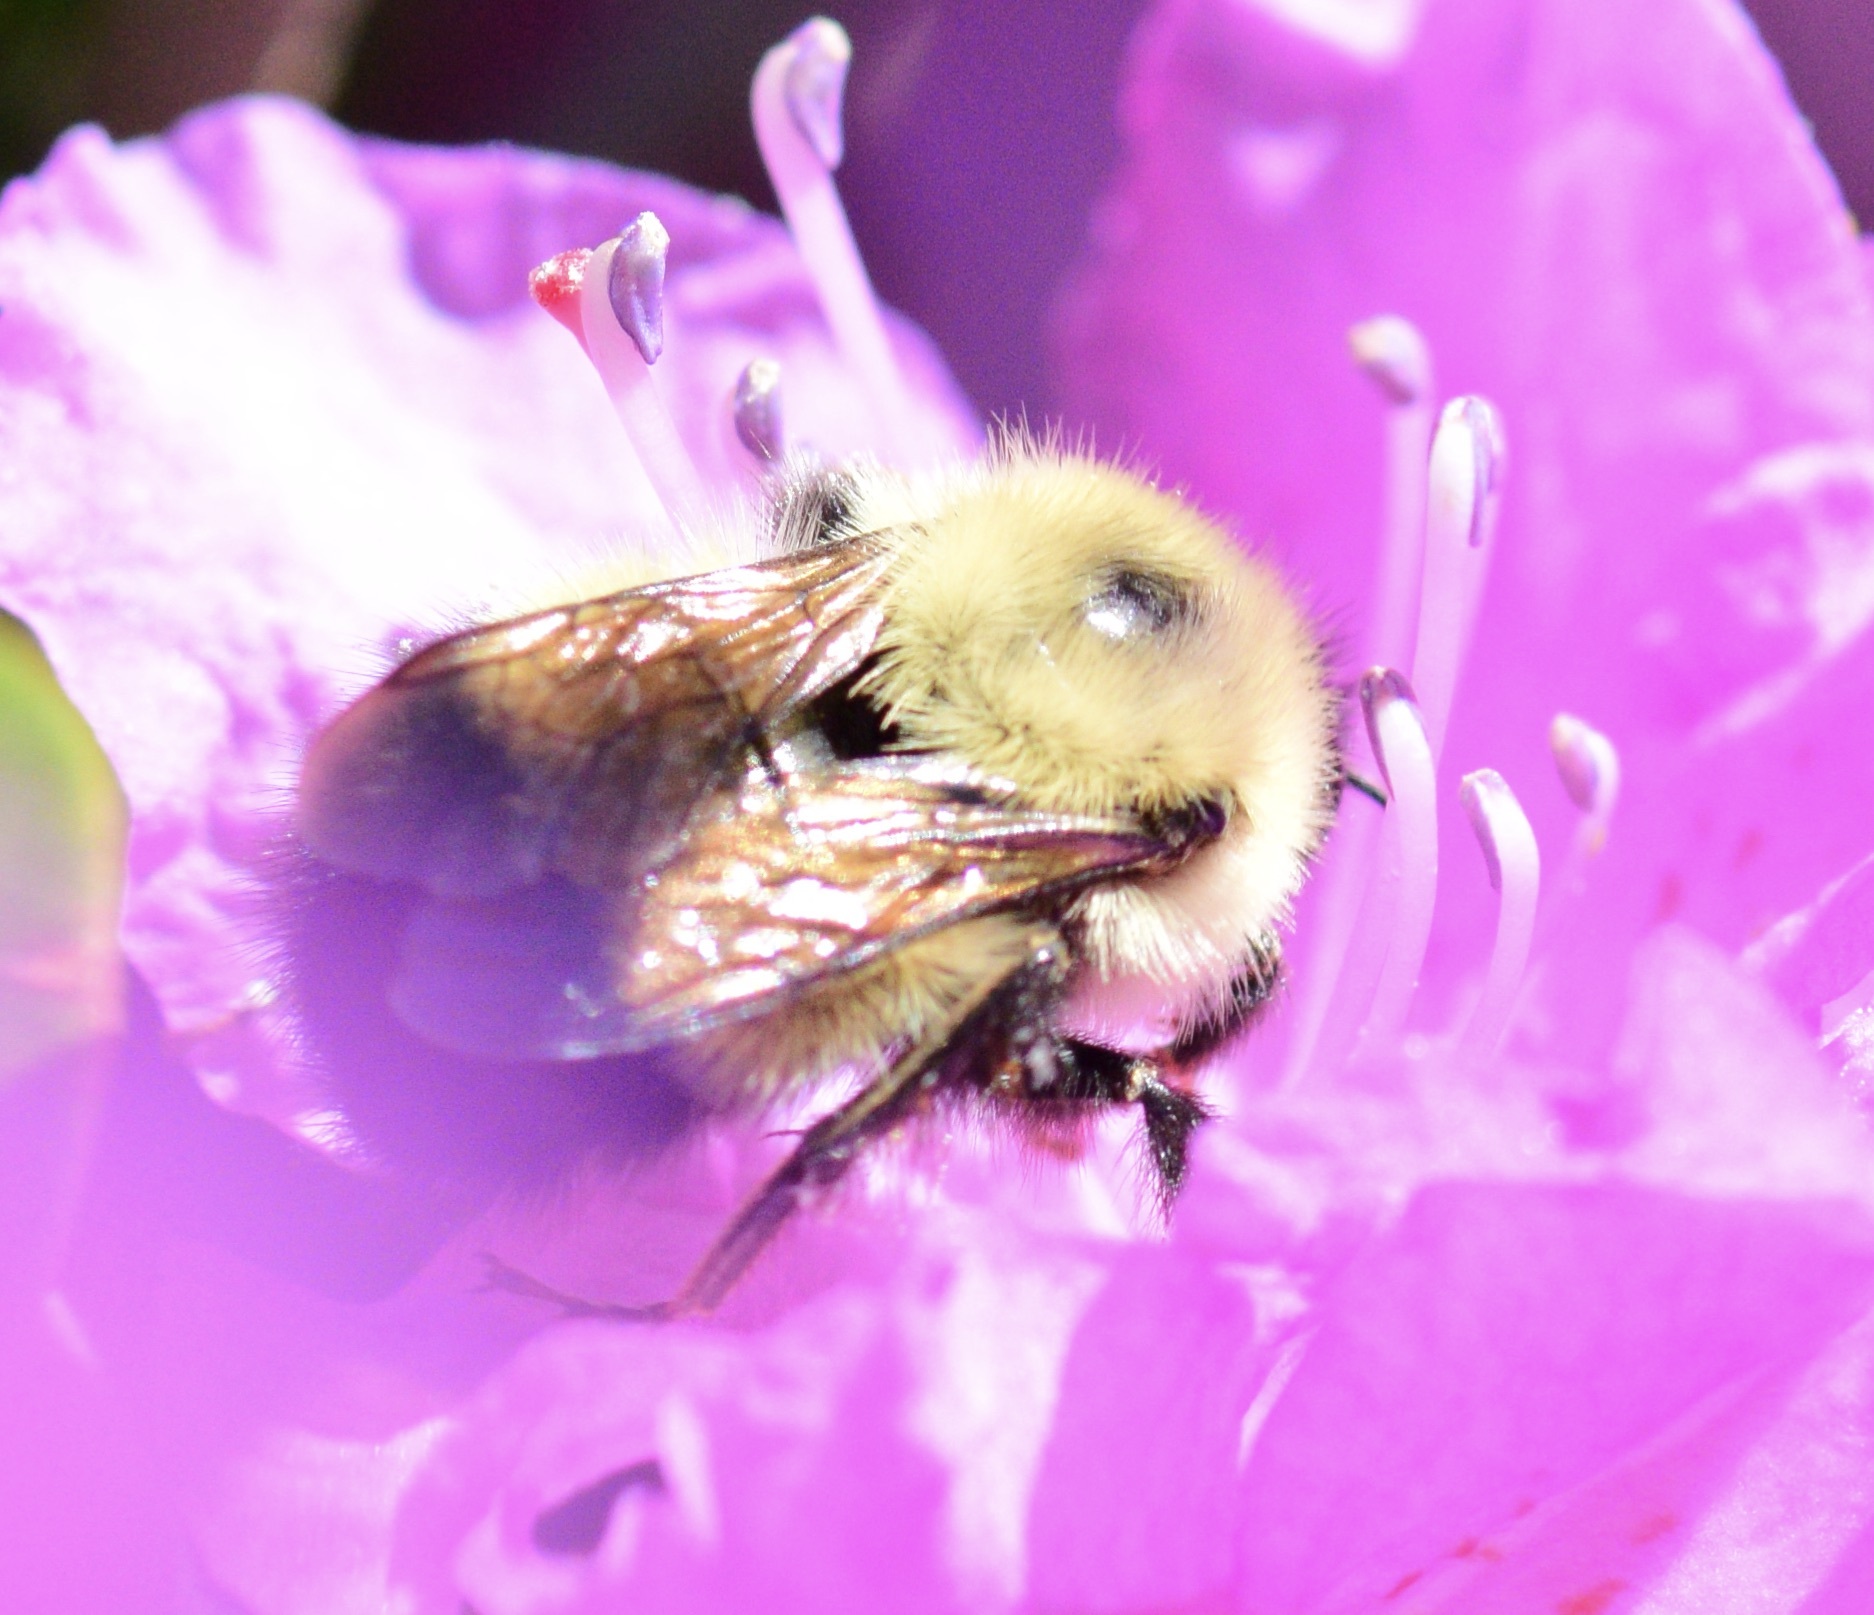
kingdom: Animalia
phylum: Arthropoda
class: Insecta
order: Hymenoptera
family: Apidae
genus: Pyrobombus
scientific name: Pyrobombus
